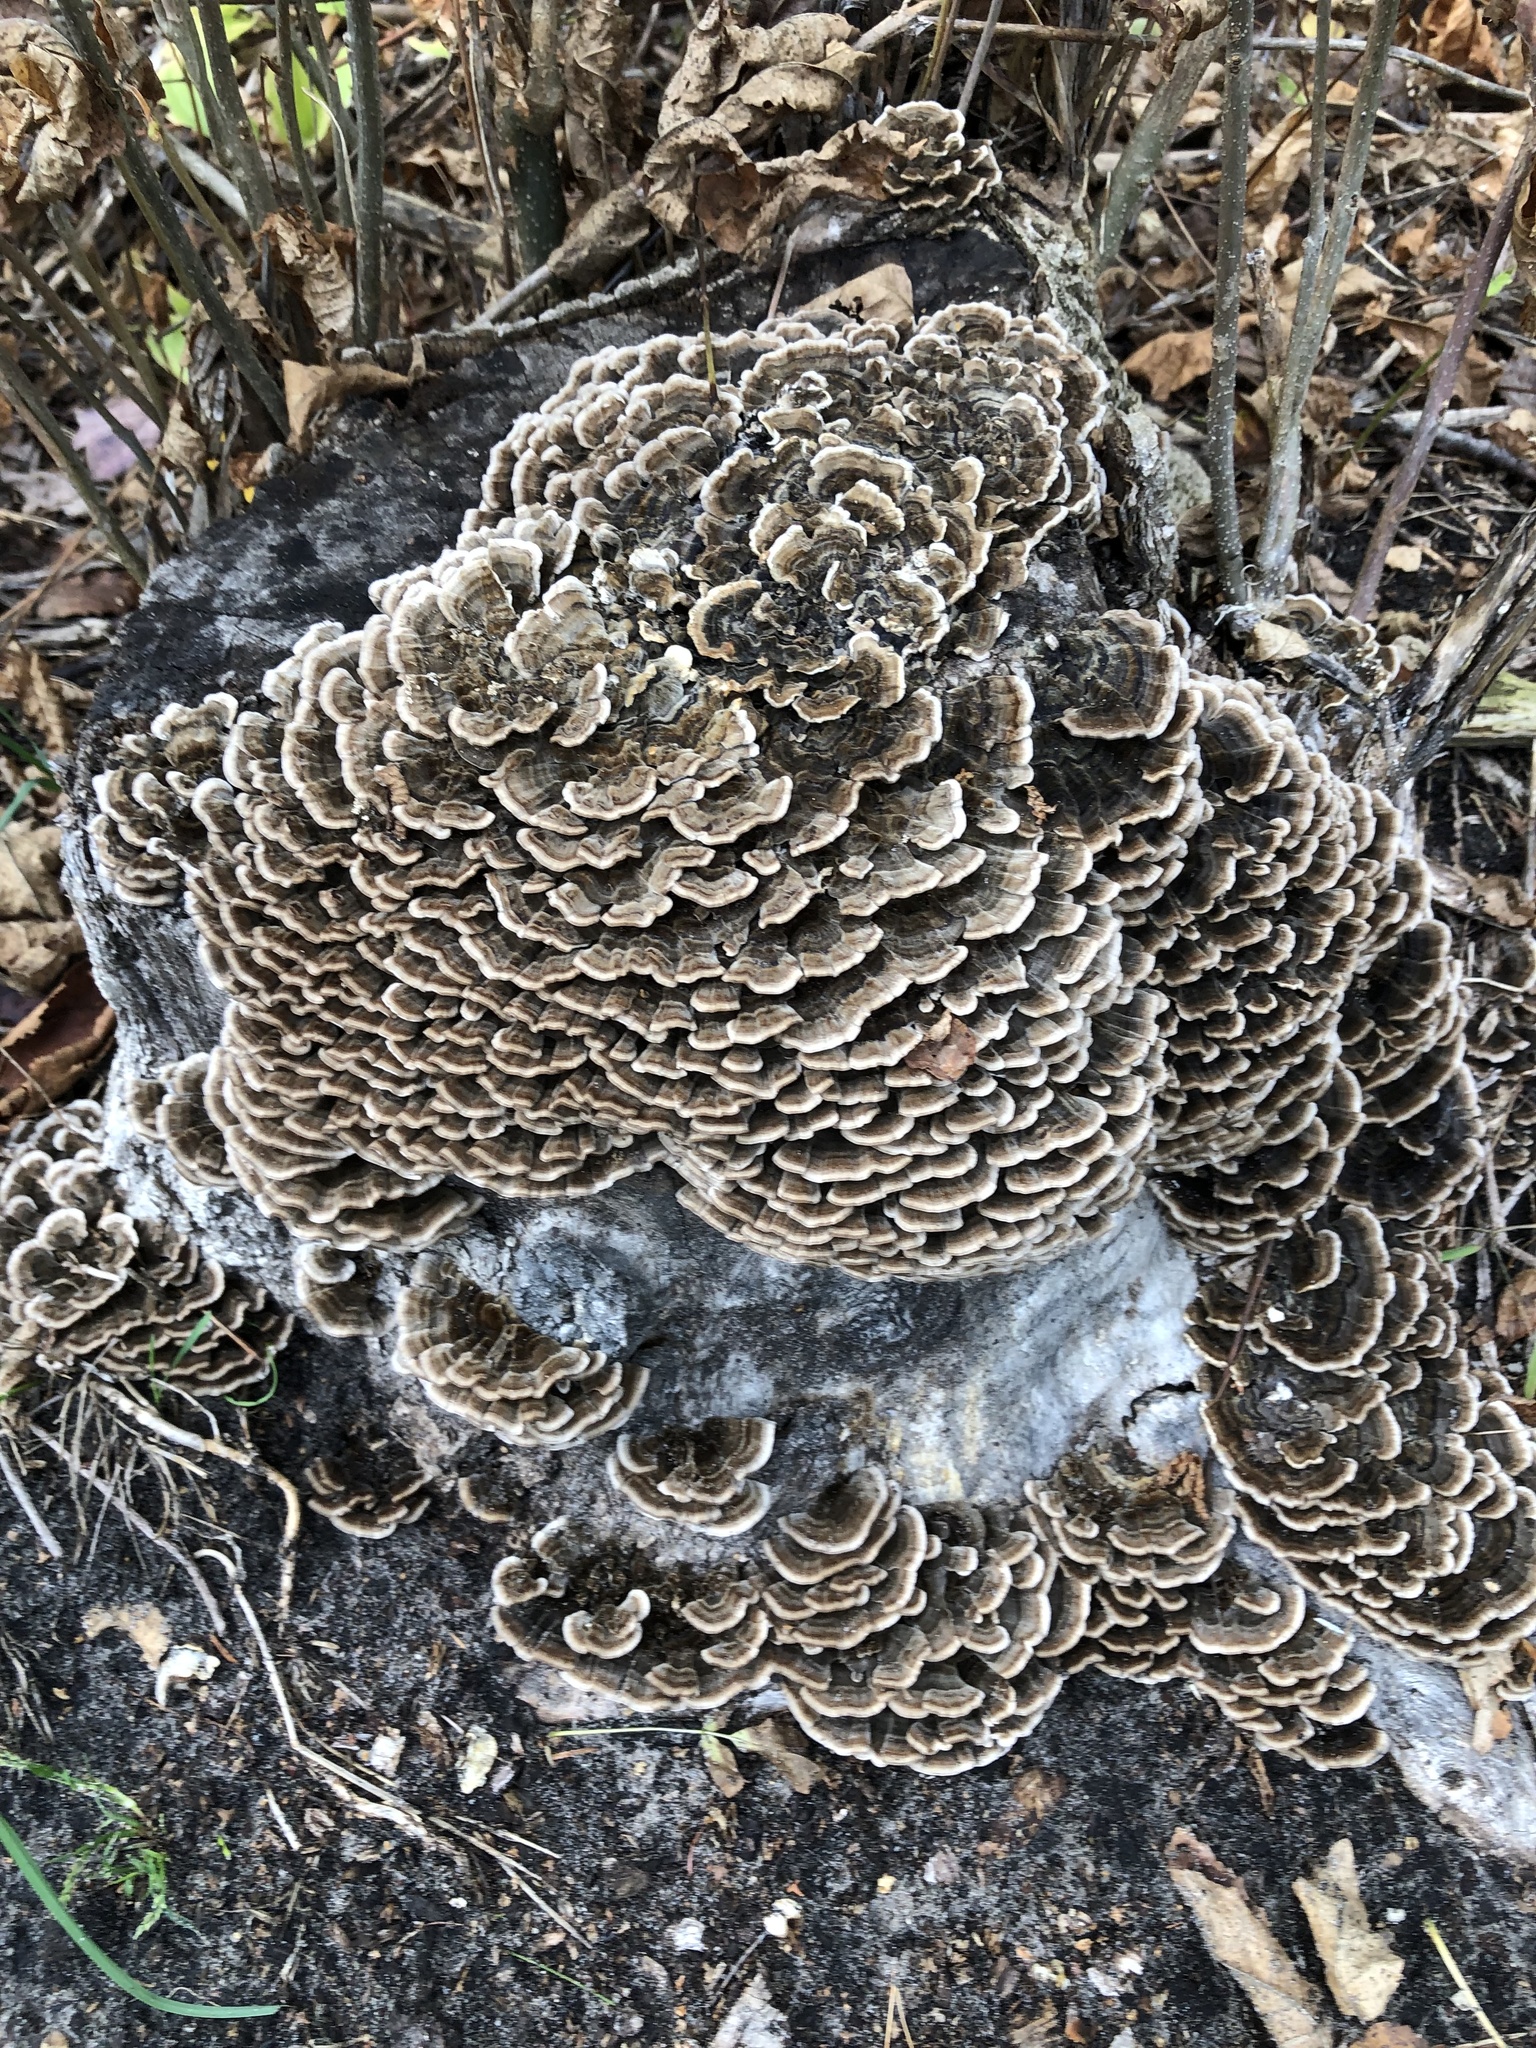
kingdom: Fungi
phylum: Basidiomycota
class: Agaricomycetes
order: Polyporales
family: Polyporaceae
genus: Trametes
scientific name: Trametes versicolor
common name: Turkeytail
